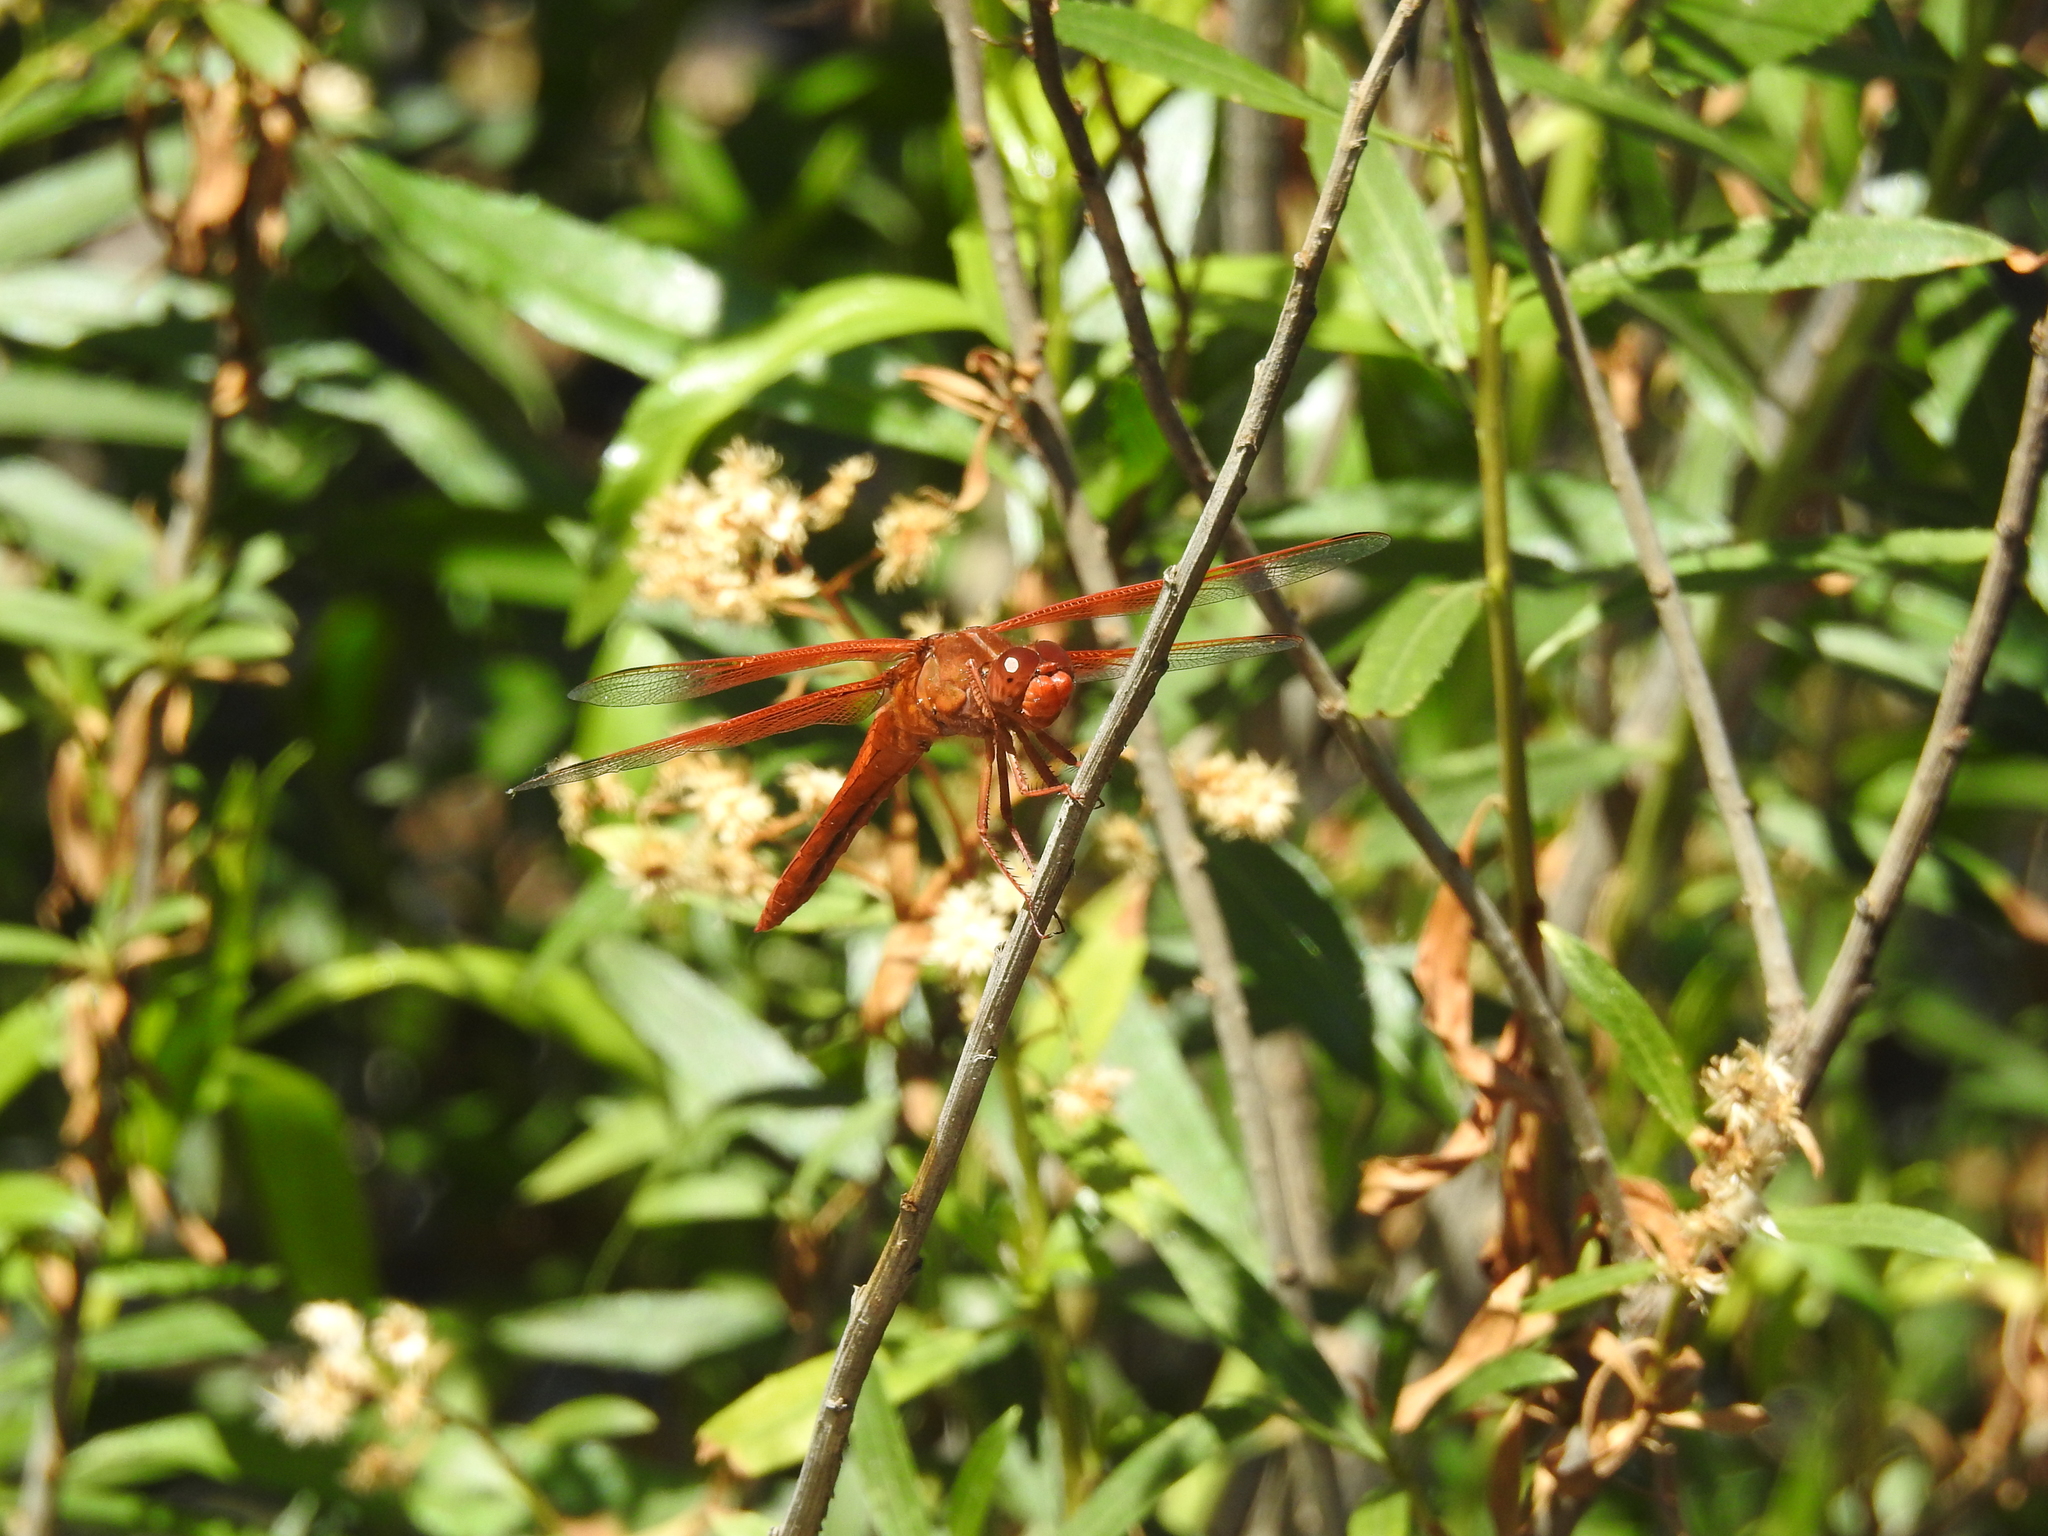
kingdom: Animalia
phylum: Arthropoda
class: Insecta
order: Odonata
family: Libellulidae
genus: Libellula
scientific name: Libellula saturata
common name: Flame skimmer
